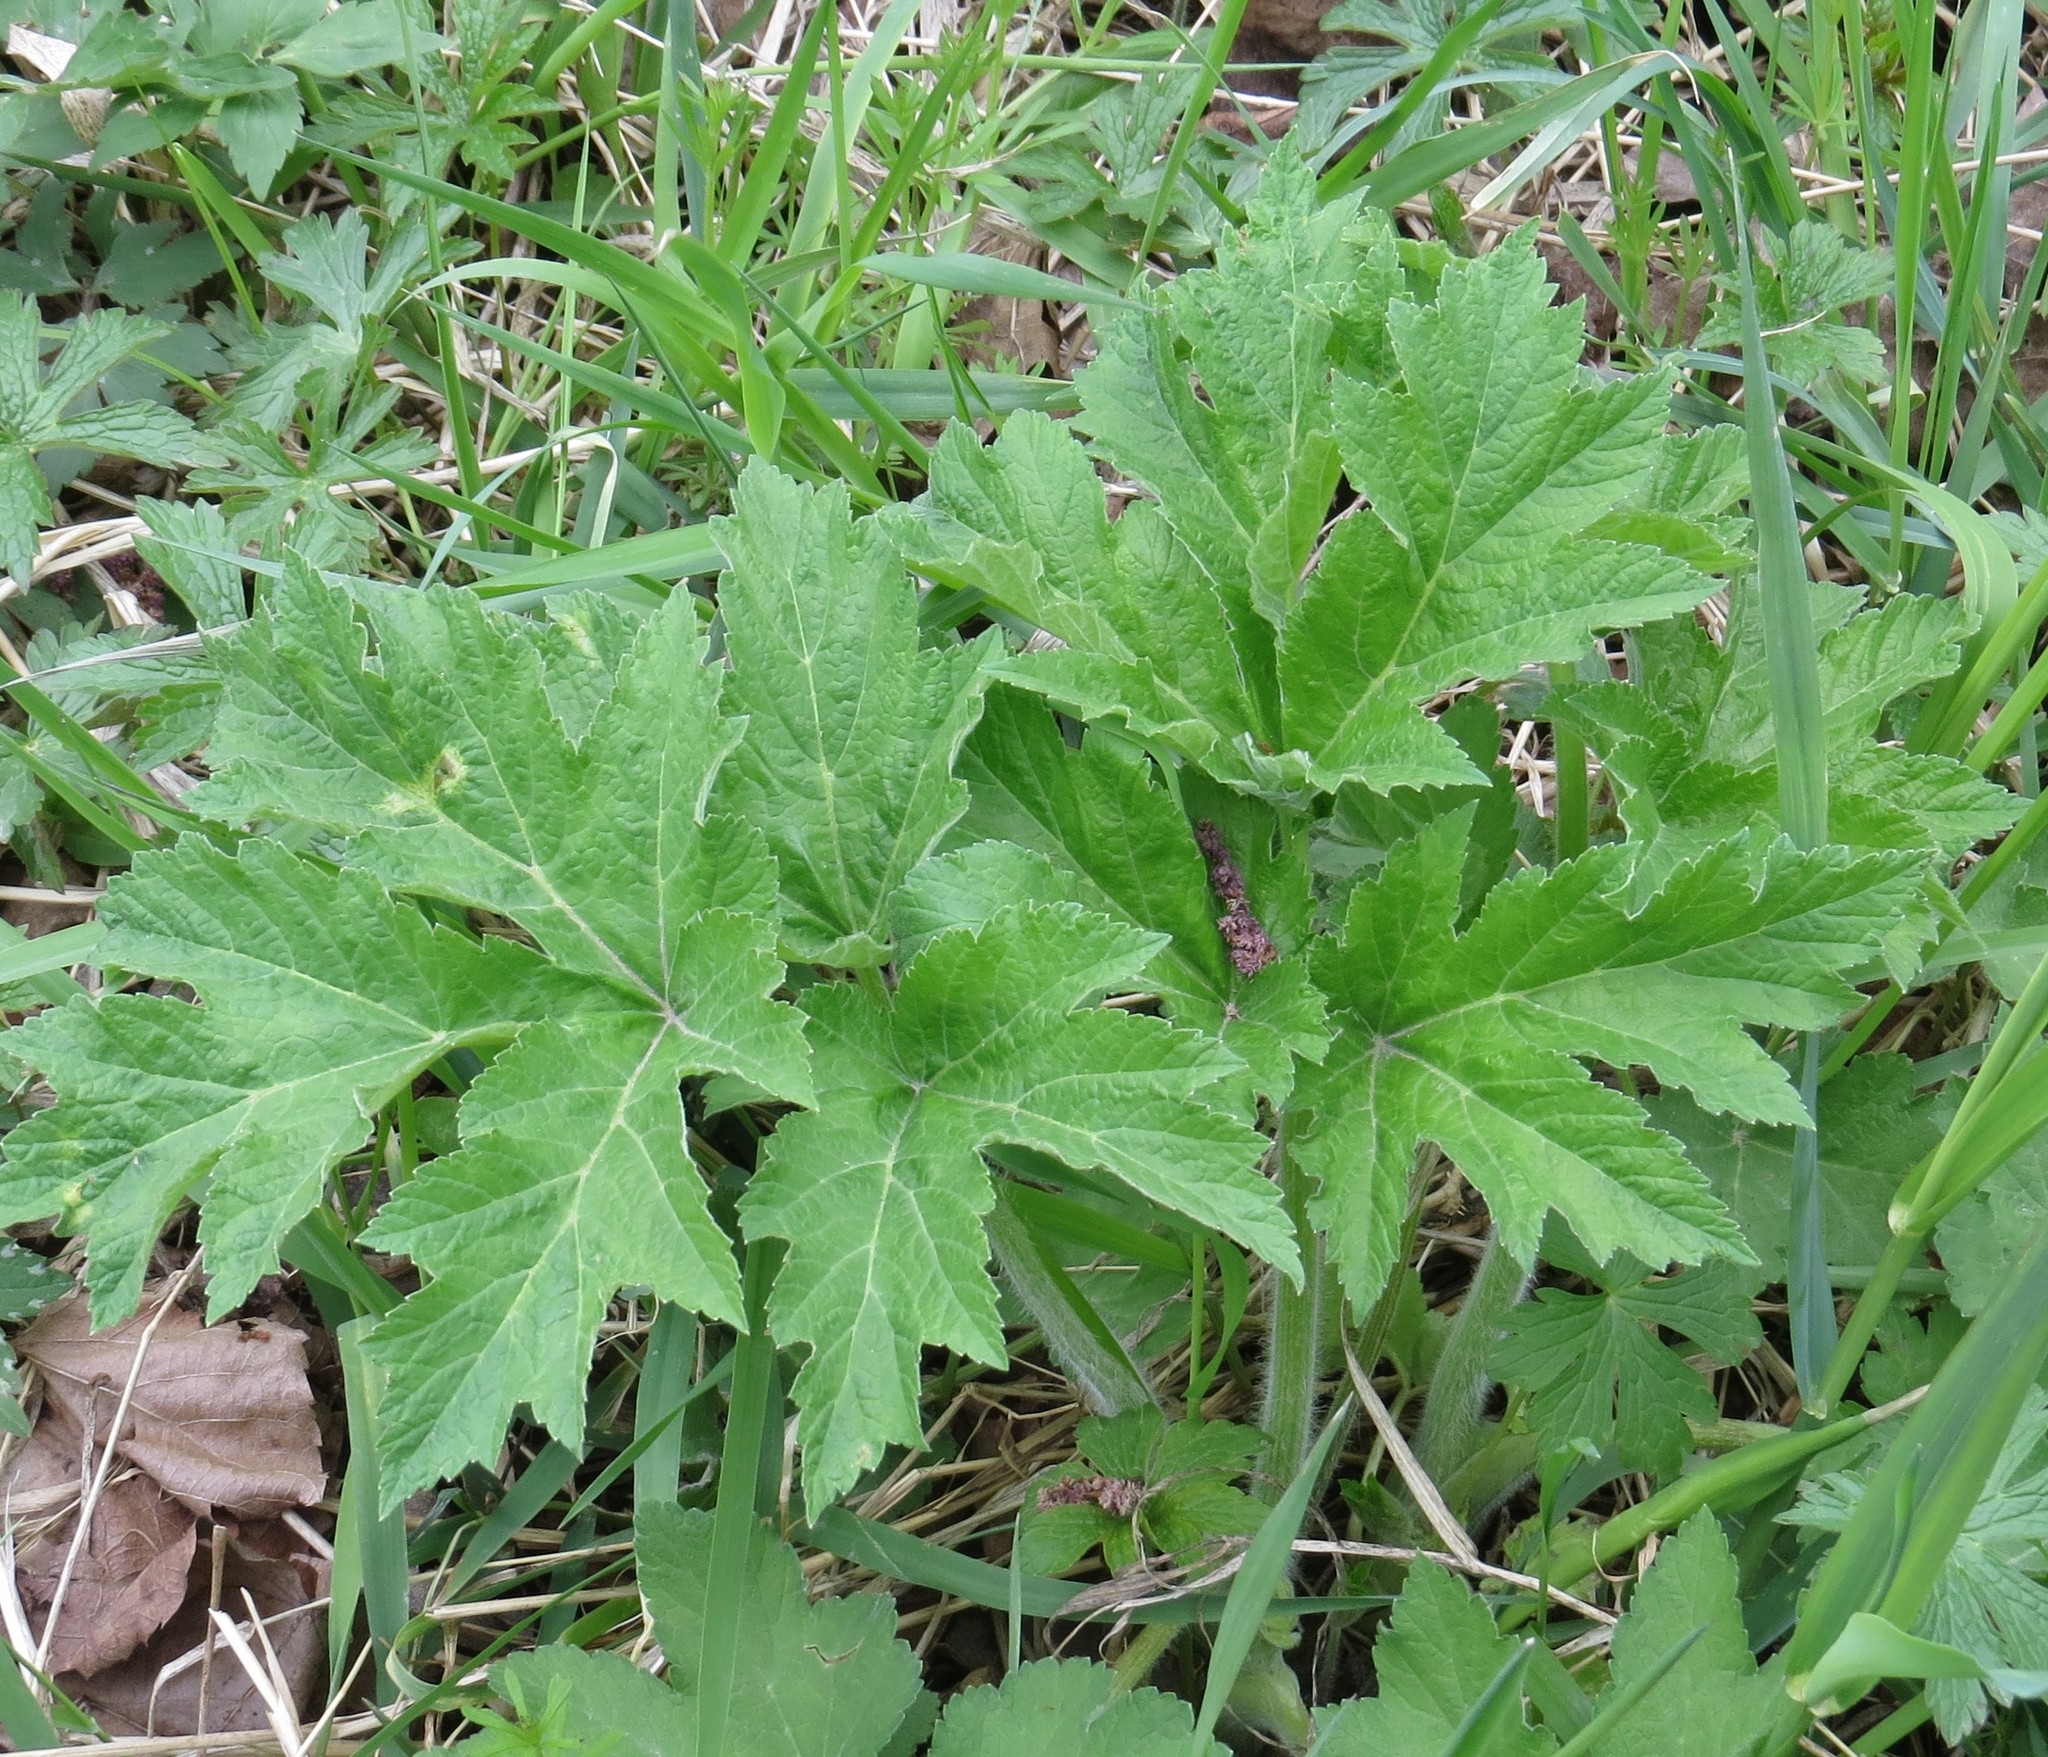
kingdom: Plantae
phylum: Tracheophyta
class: Magnoliopsida
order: Apiales
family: Apiaceae
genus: Heracleum
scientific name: Heracleum maximum
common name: American cow parsnip
